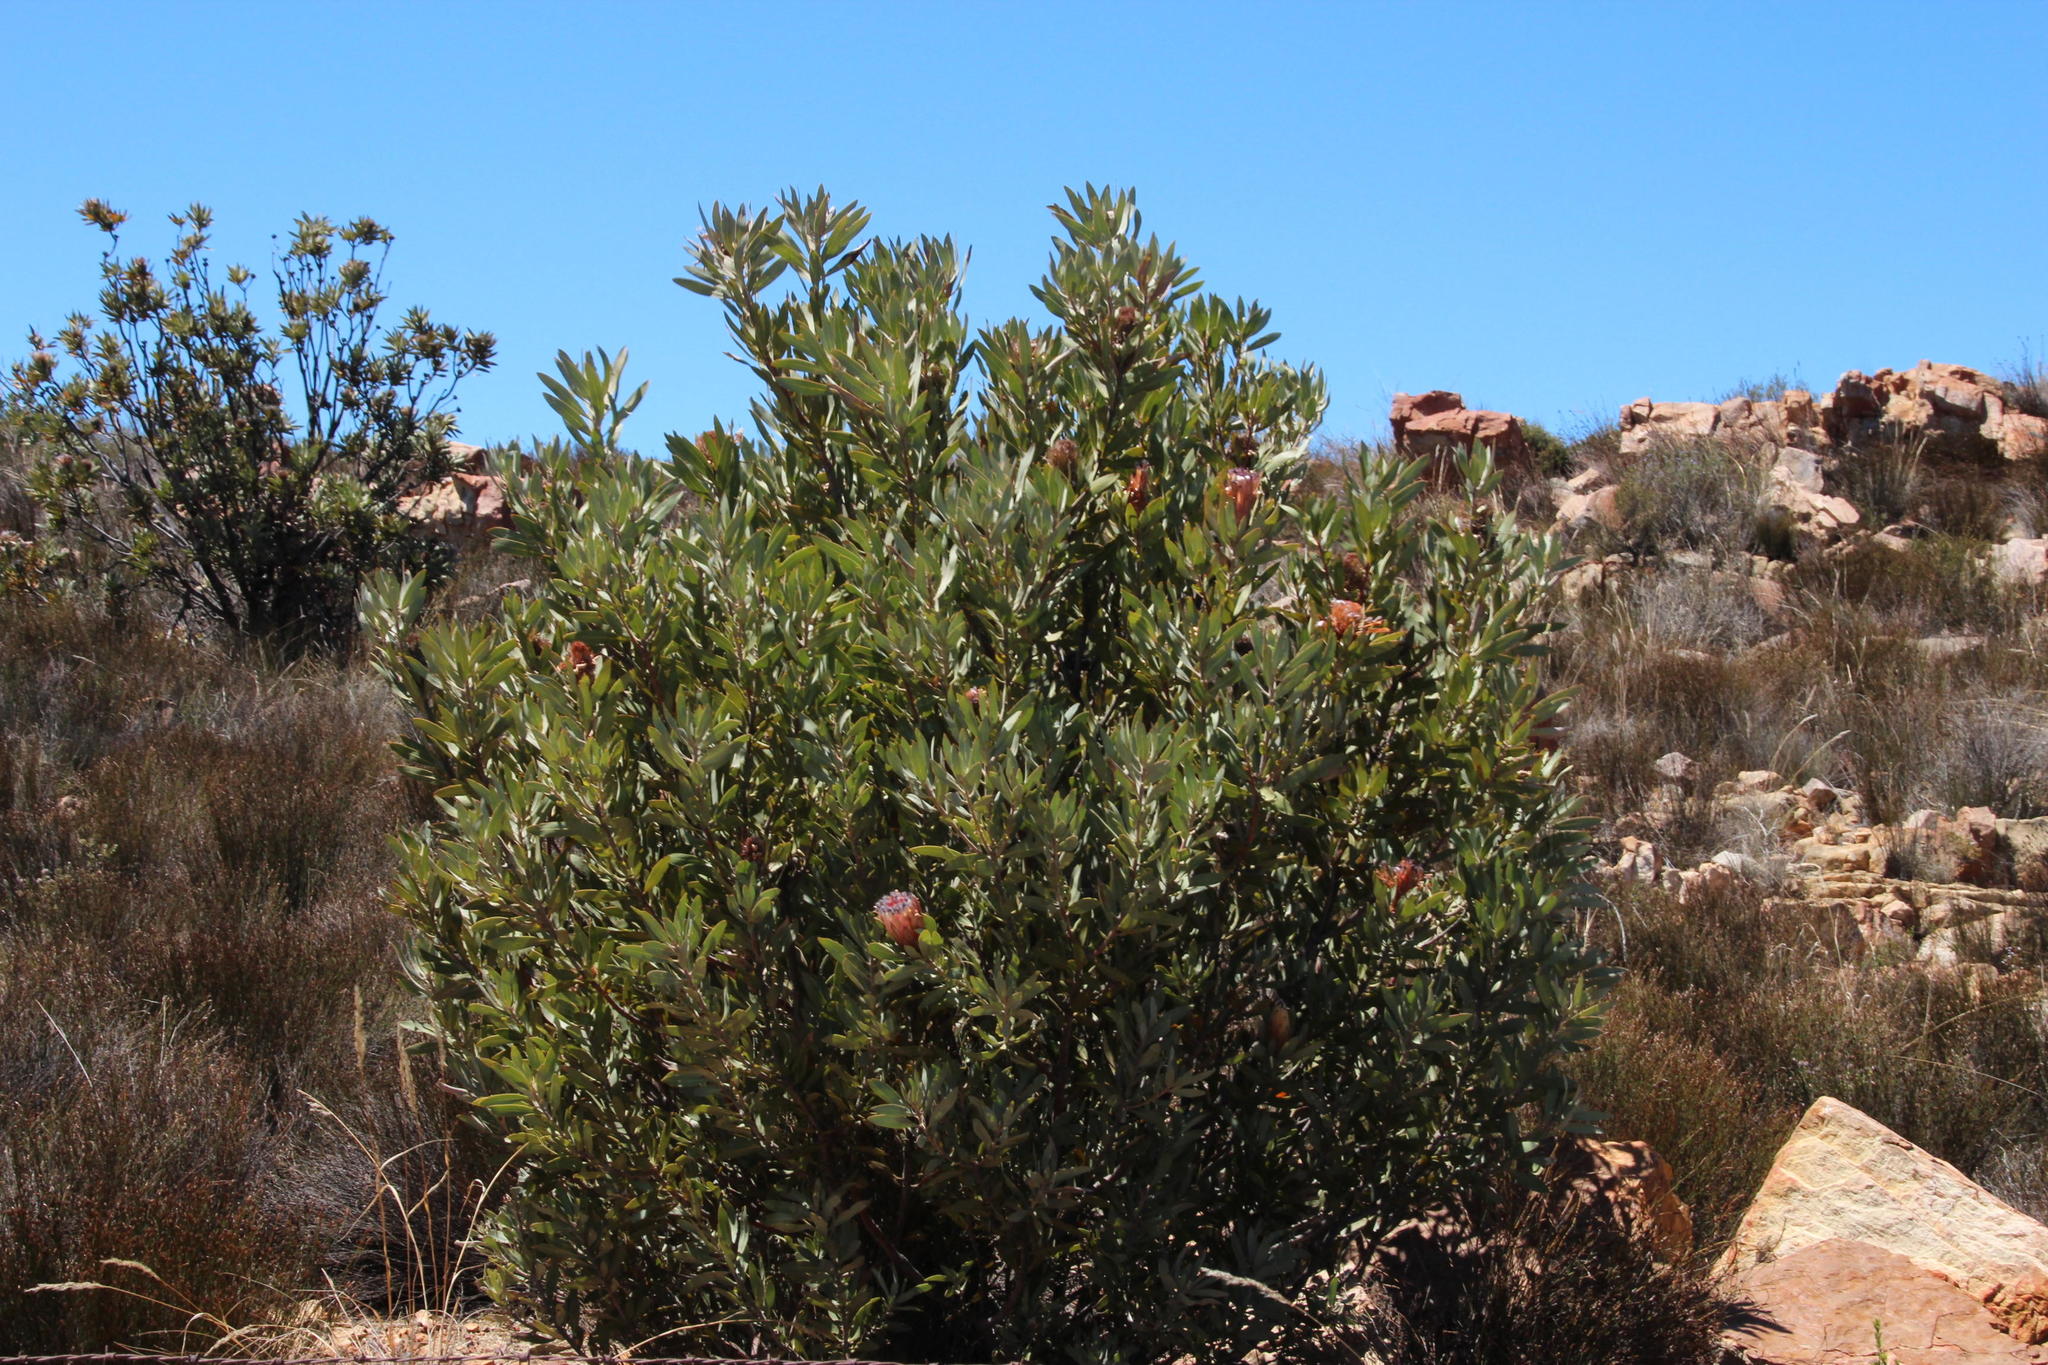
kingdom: Plantae
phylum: Tracheophyta
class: Magnoliopsida
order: Proteales
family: Proteaceae
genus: Protea
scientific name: Protea laurifolia
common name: Grey-leaf sugarbsh
